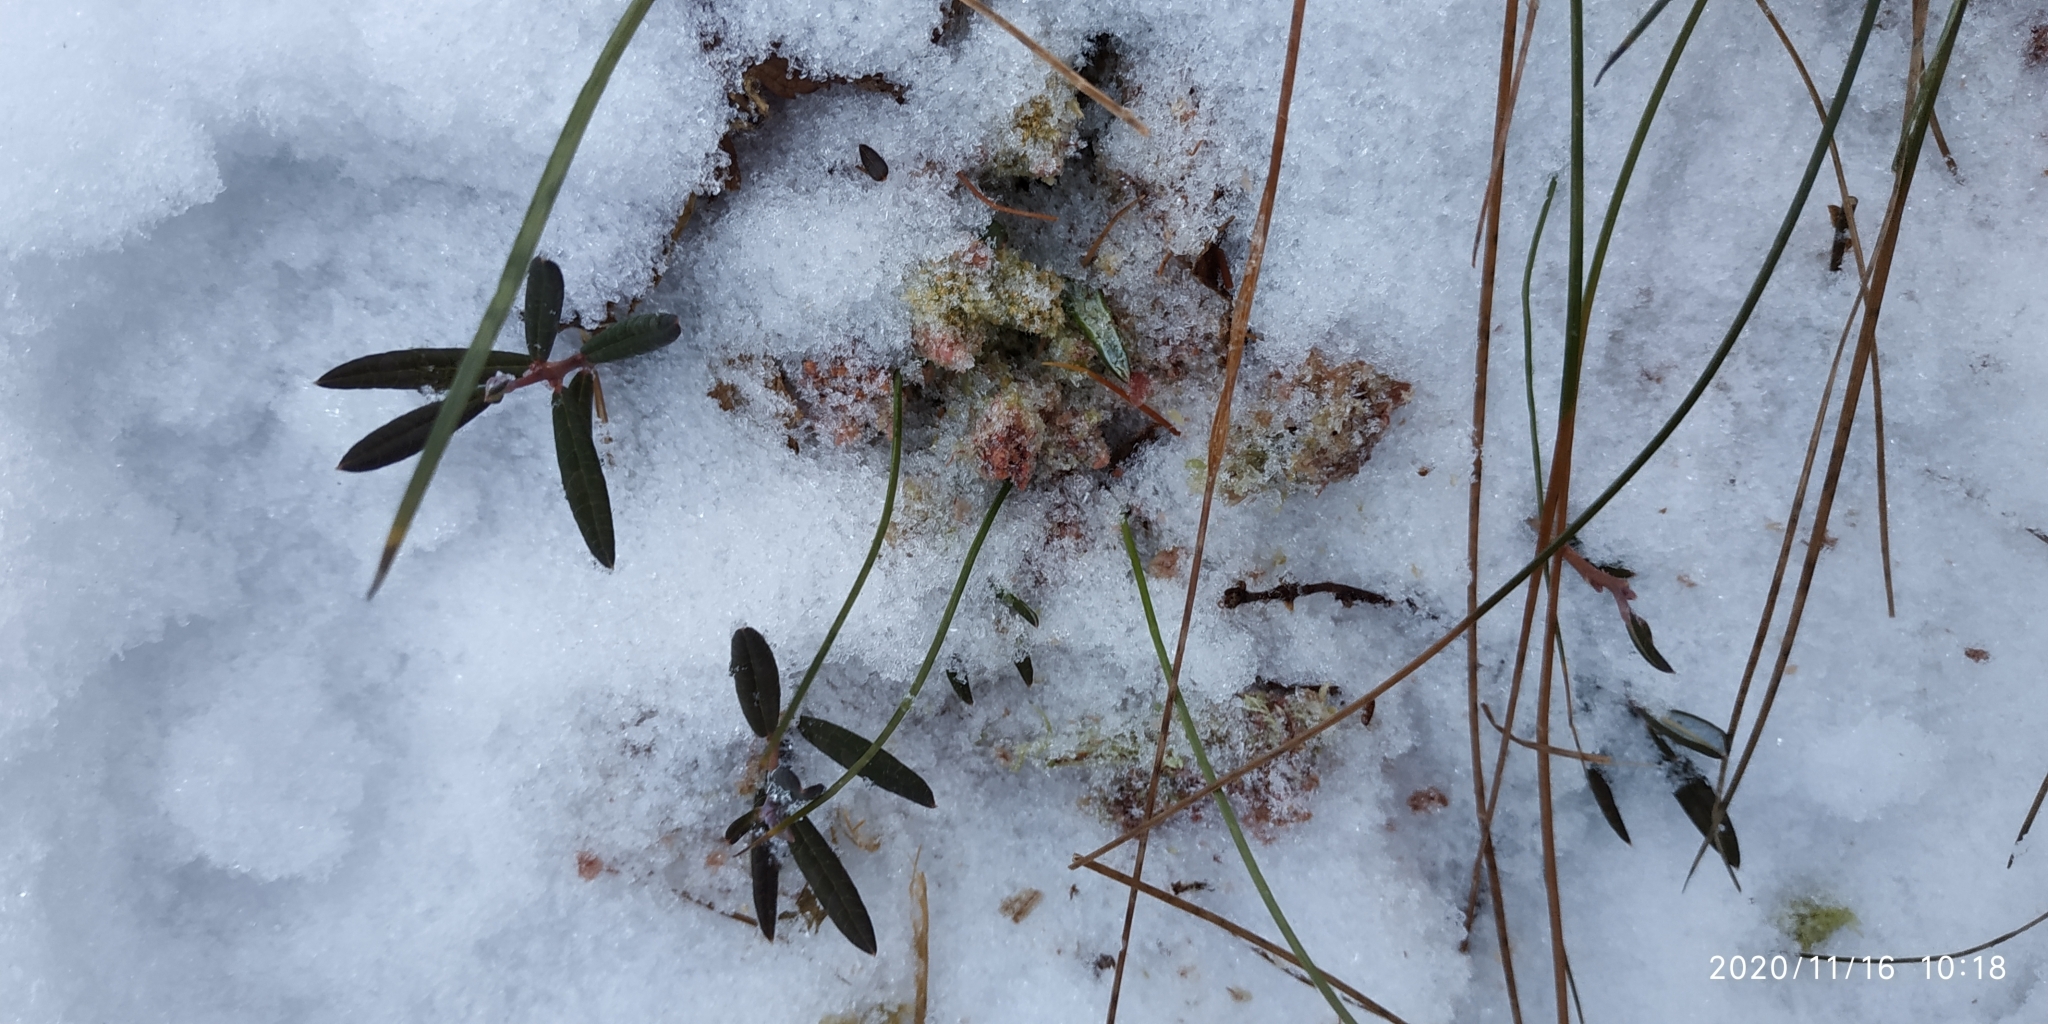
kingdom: Plantae
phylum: Tracheophyta
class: Magnoliopsida
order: Ericales
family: Ericaceae
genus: Andromeda
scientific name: Andromeda polifolia
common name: Bog-rosemary
